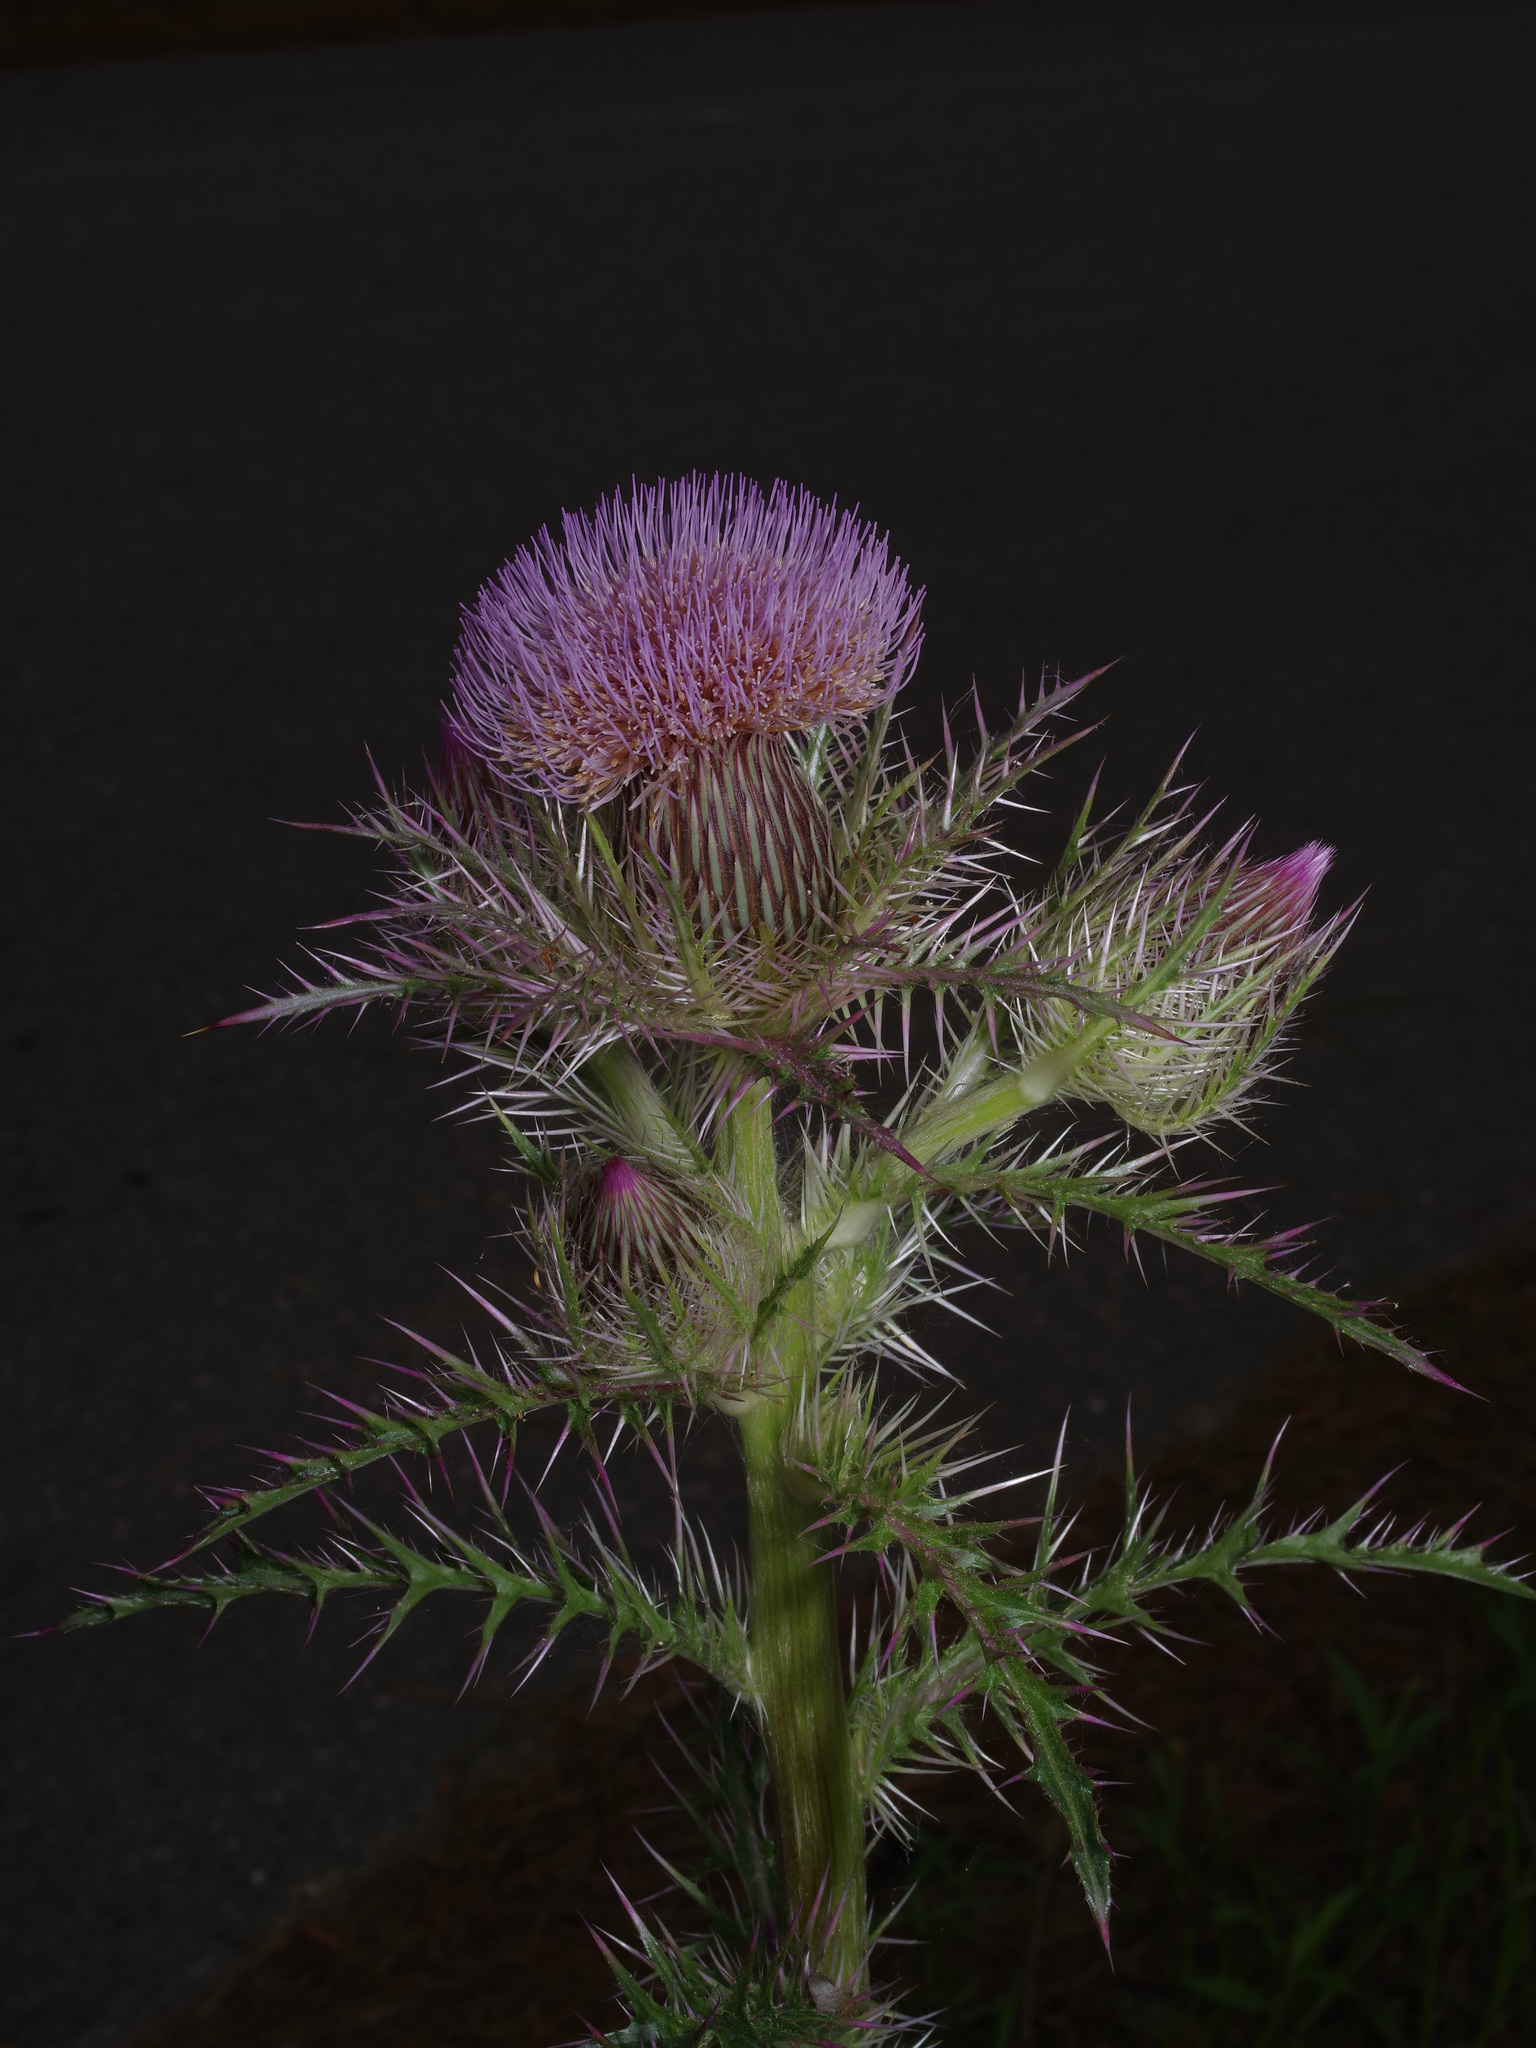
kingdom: Plantae
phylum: Tracheophyta
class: Magnoliopsida
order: Asterales
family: Asteraceae
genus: Cirsium
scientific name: Cirsium horridulum
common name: Bristly thistle
